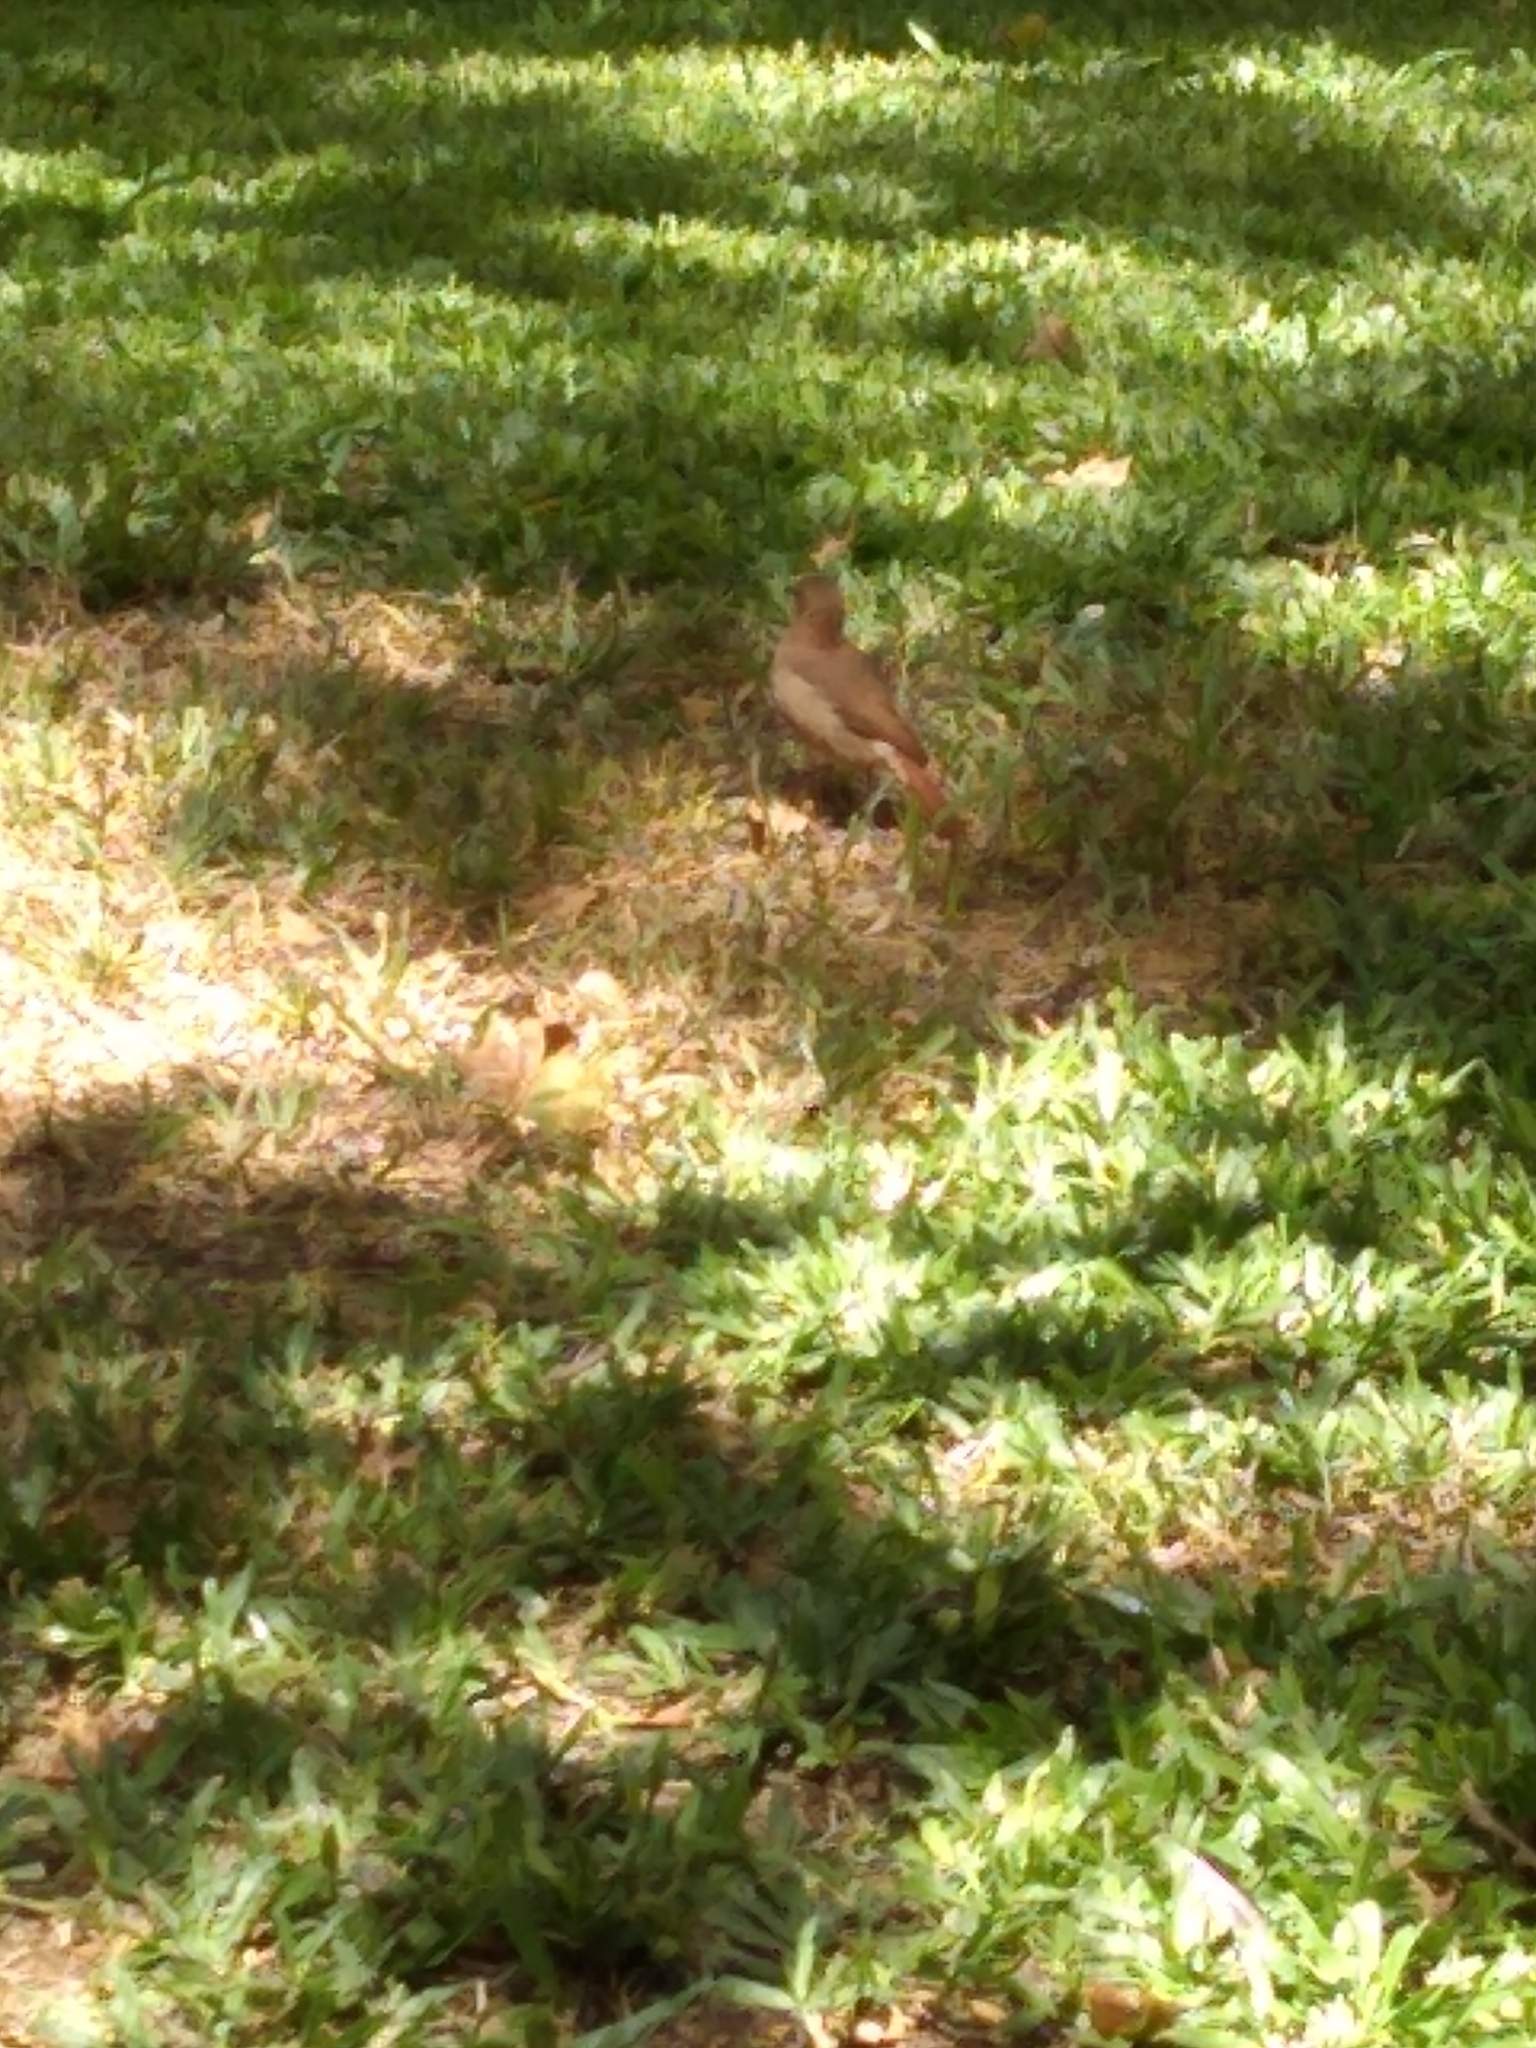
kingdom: Animalia
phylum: Chordata
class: Aves
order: Passeriformes
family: Furnariidae
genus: Furnarius
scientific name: Furnarius rufus
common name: Rufous hornero
